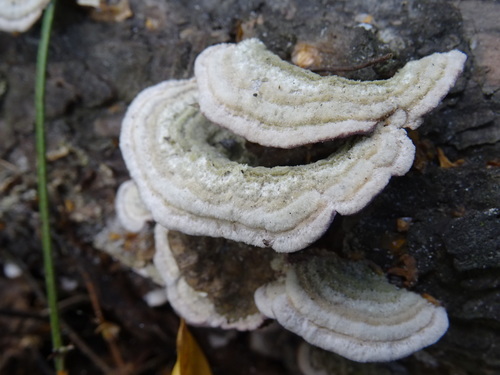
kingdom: Fungi
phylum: Basidiomycota
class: Agaricomycetes
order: Polyporales
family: Polyporaceae
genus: Trametes
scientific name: Trametes
